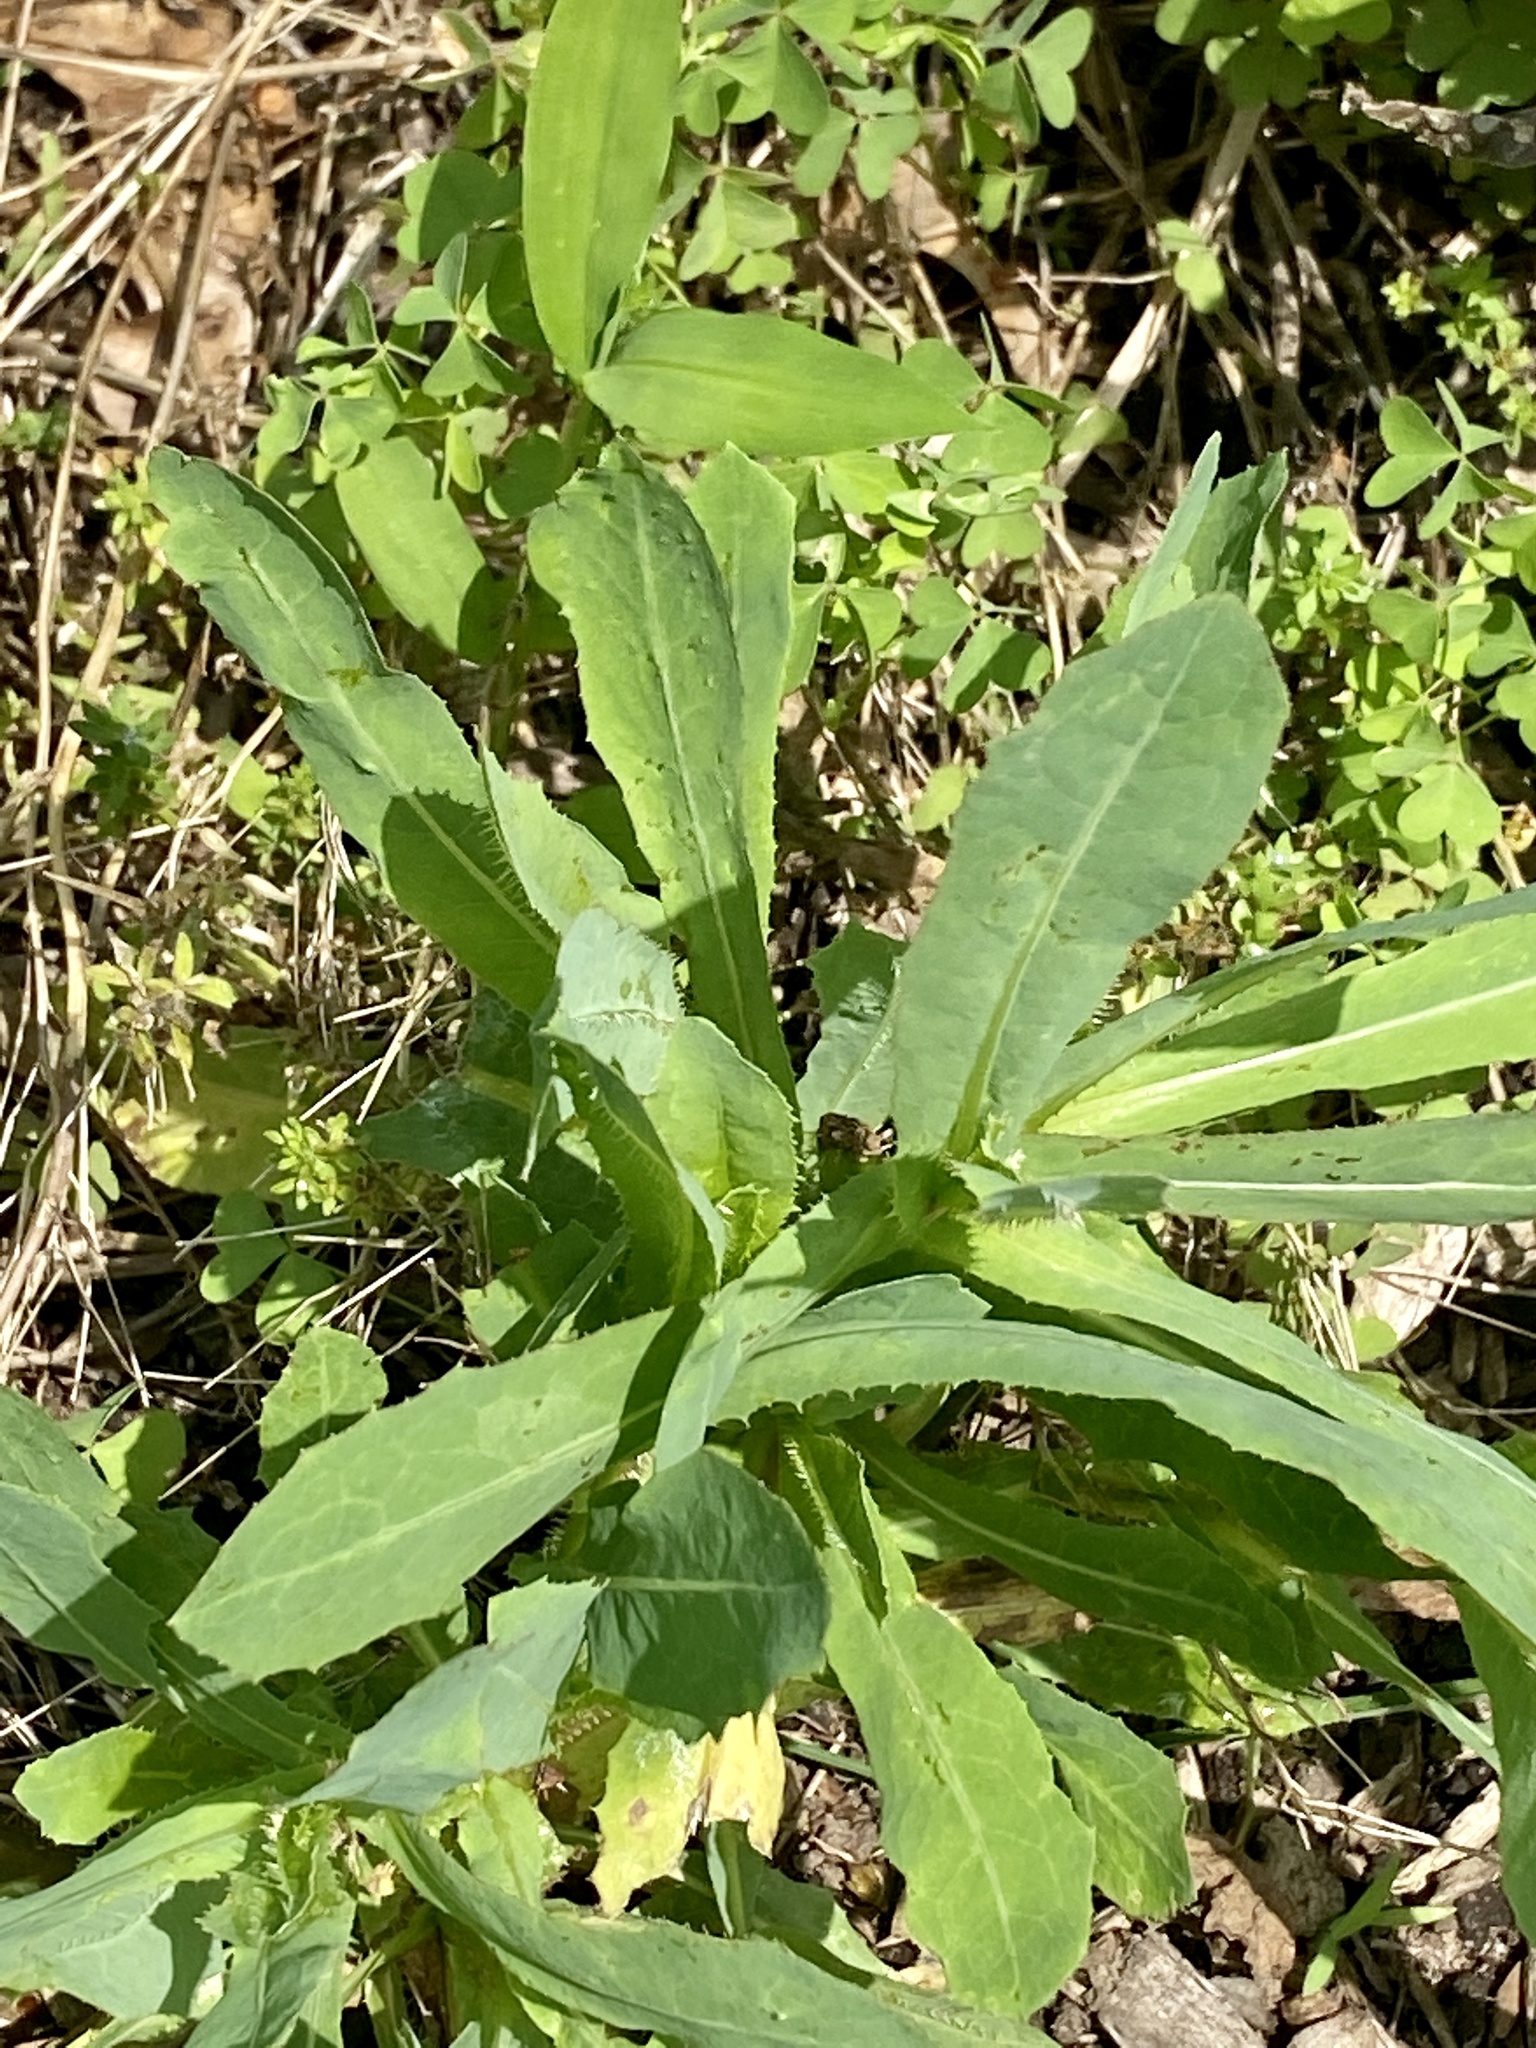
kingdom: Plantae
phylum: Tracheophyta
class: Magnoliopsida
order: Asterales
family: Asteraceae
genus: Lactuca
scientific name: Lactuca serriola
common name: Prickly lettuce
